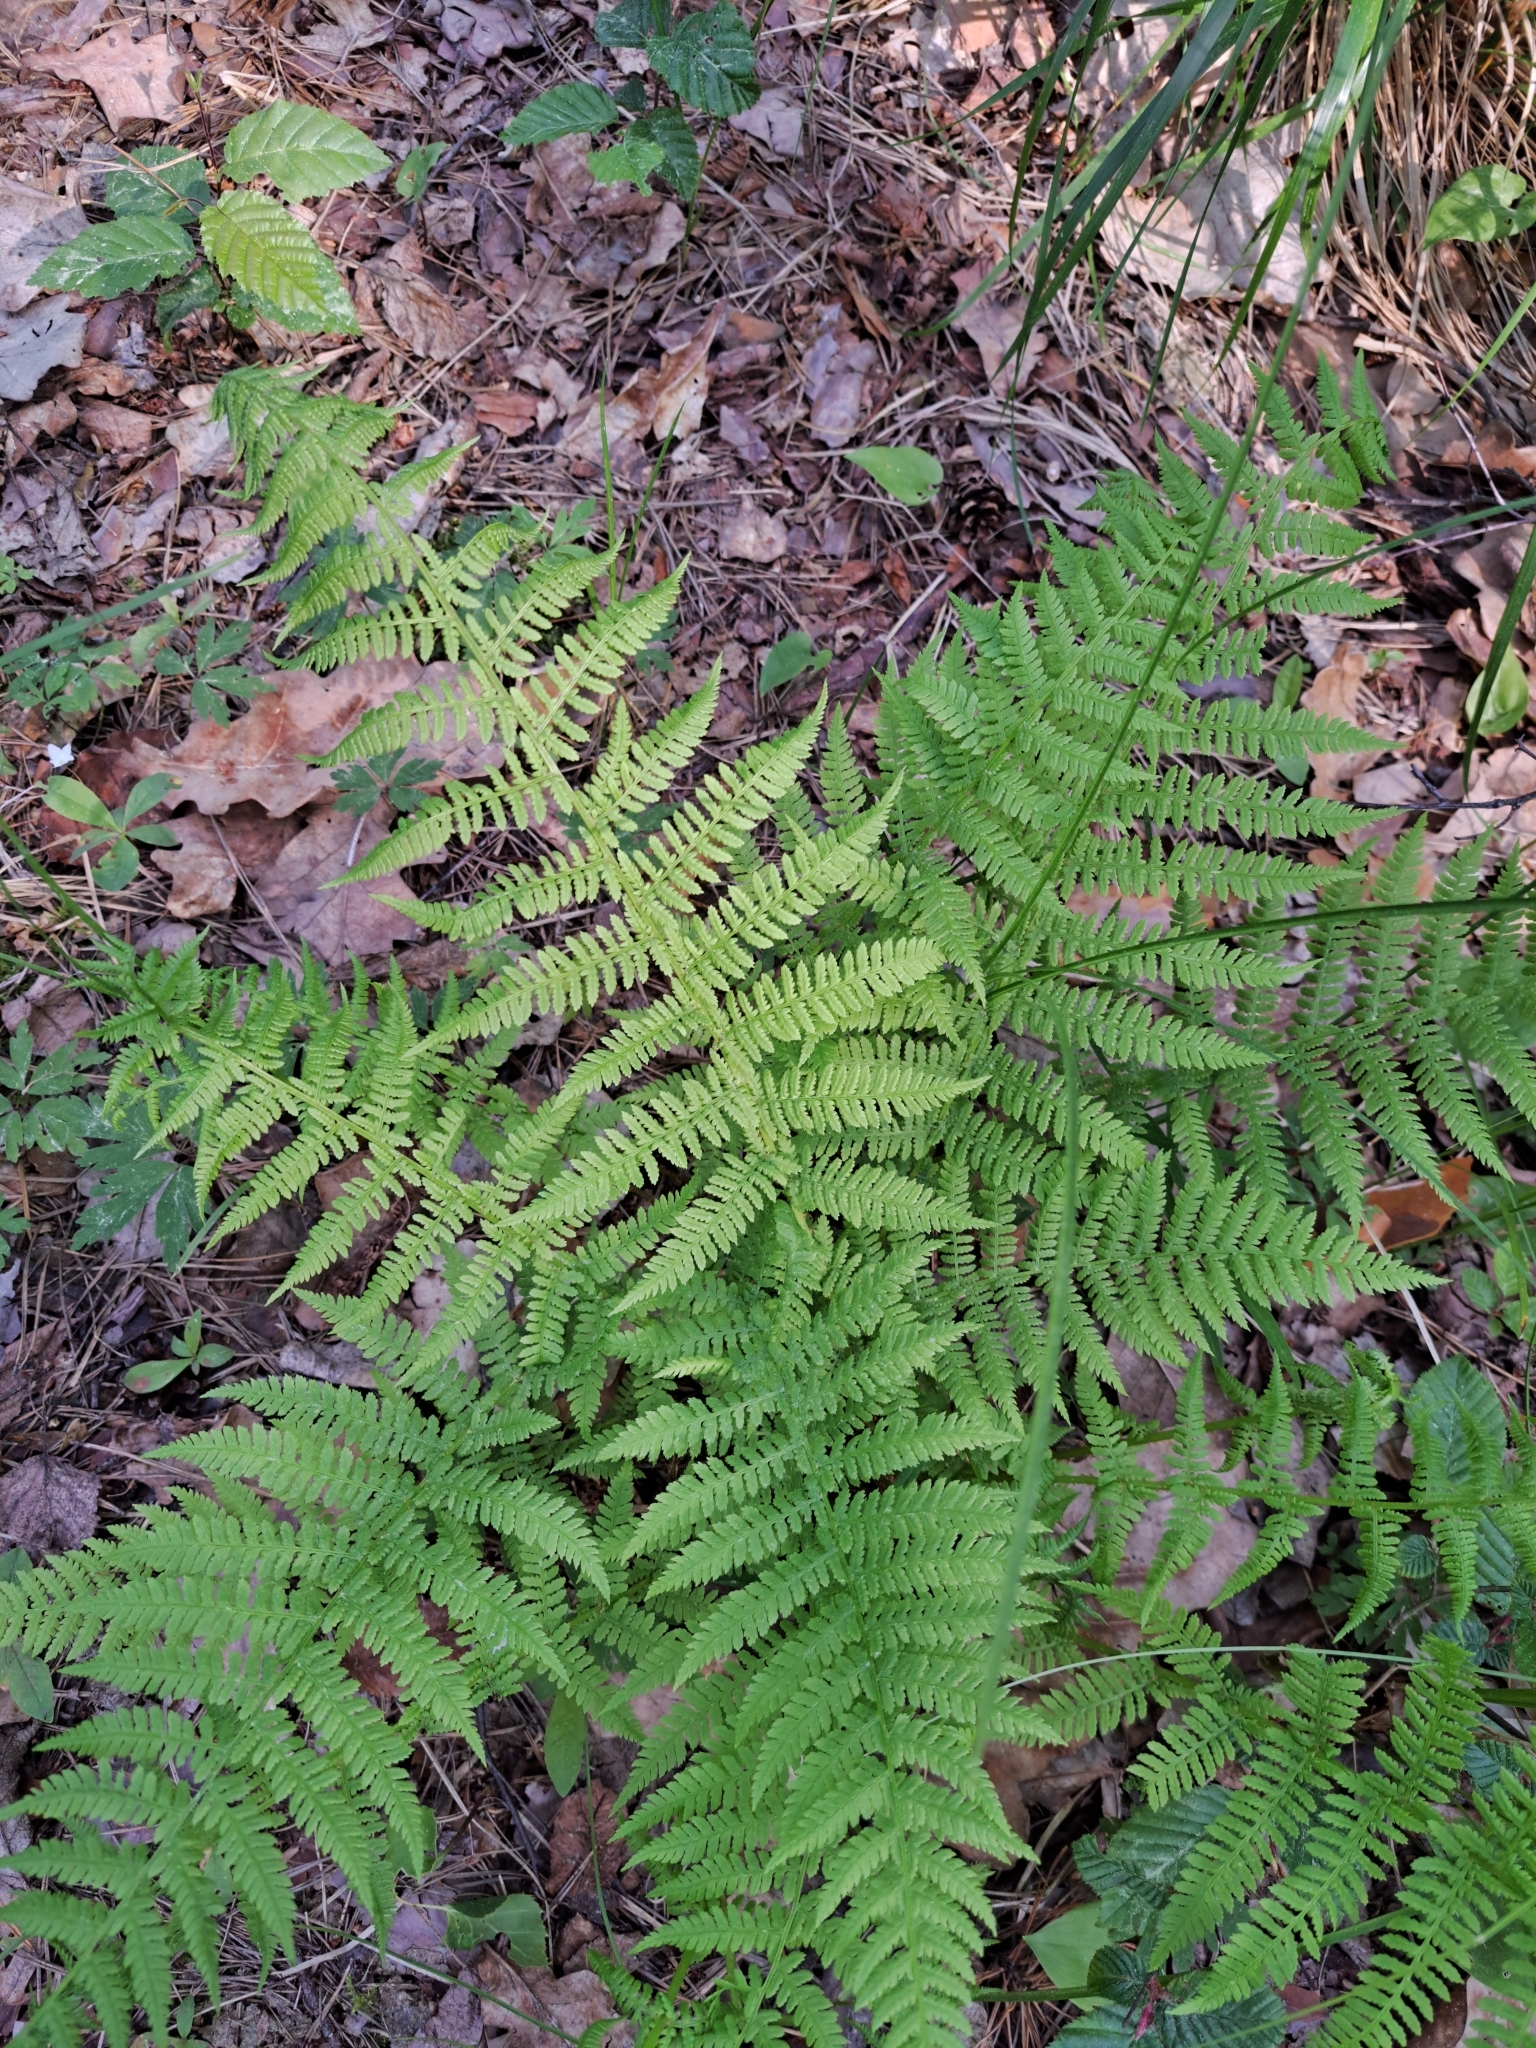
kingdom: Plantae
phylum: Tracheophyta
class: Polypodiopsida
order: Polypodiales
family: Athyriaceae
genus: Athyrium
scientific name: Athyrium filix-femina
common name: Lady fern
